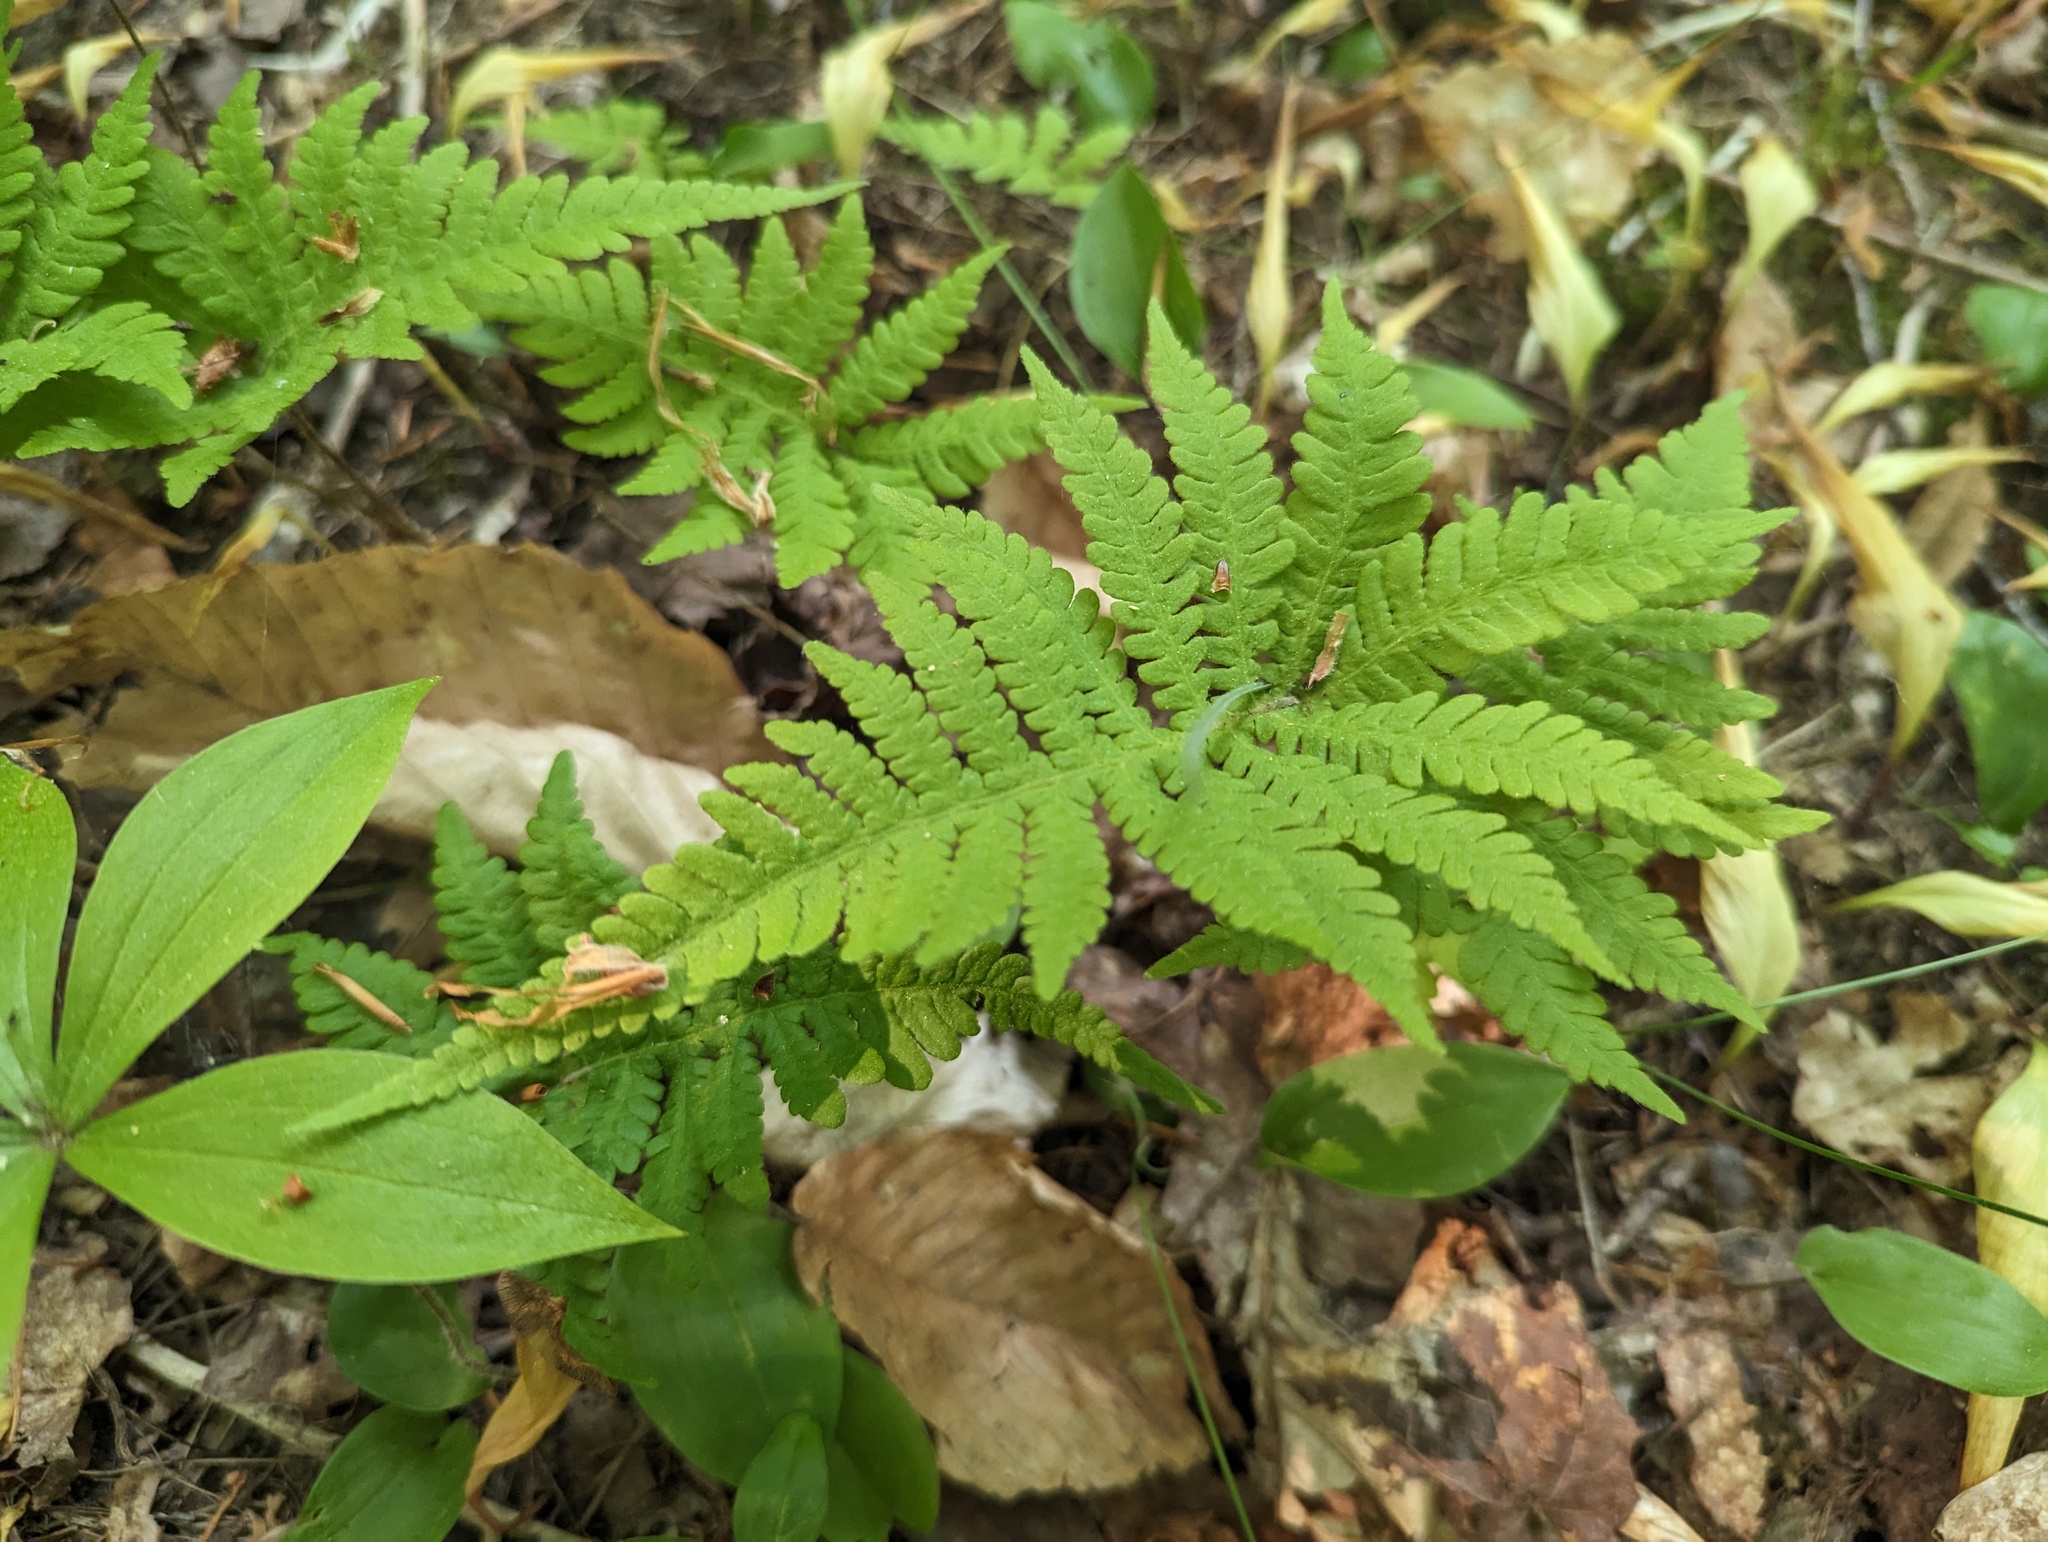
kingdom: Plantae
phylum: Tracheophyta
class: Polypodiopsida
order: Polypodiales
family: Thelypteridaceae
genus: Phegopteris
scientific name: Phegopteris connectilis
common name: Beech fern
